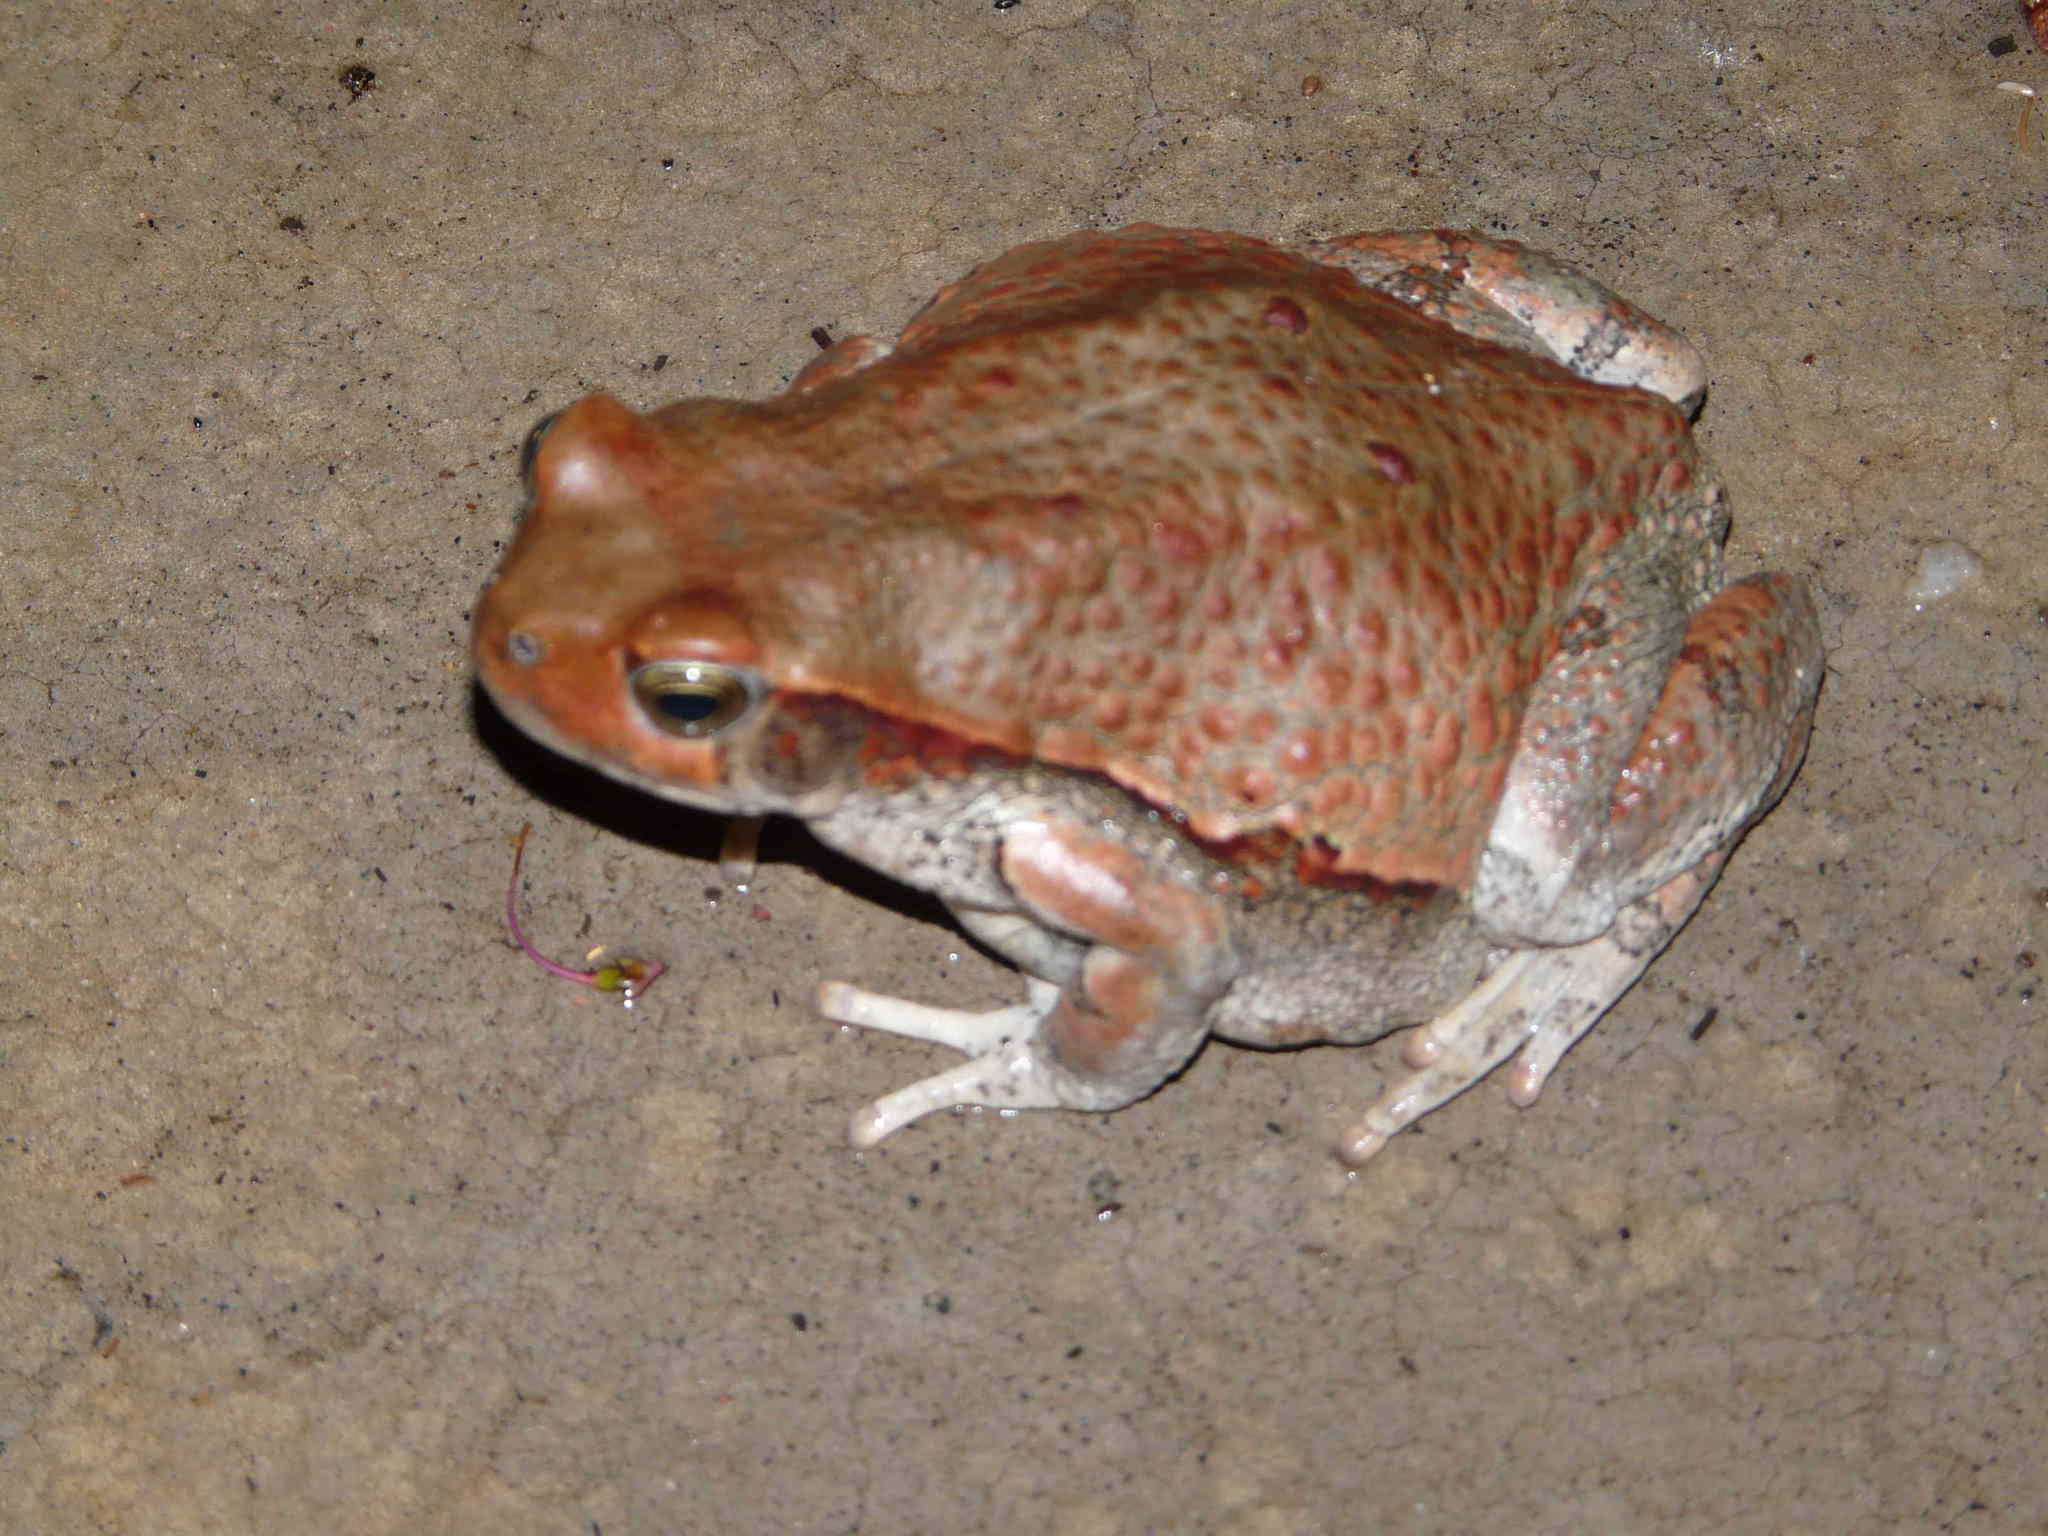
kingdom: Animalia
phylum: Chordata
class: Amphibia
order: Anura
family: Bufonidae
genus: Schismaderma
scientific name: Schismaderma carens
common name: African split-skin toad
